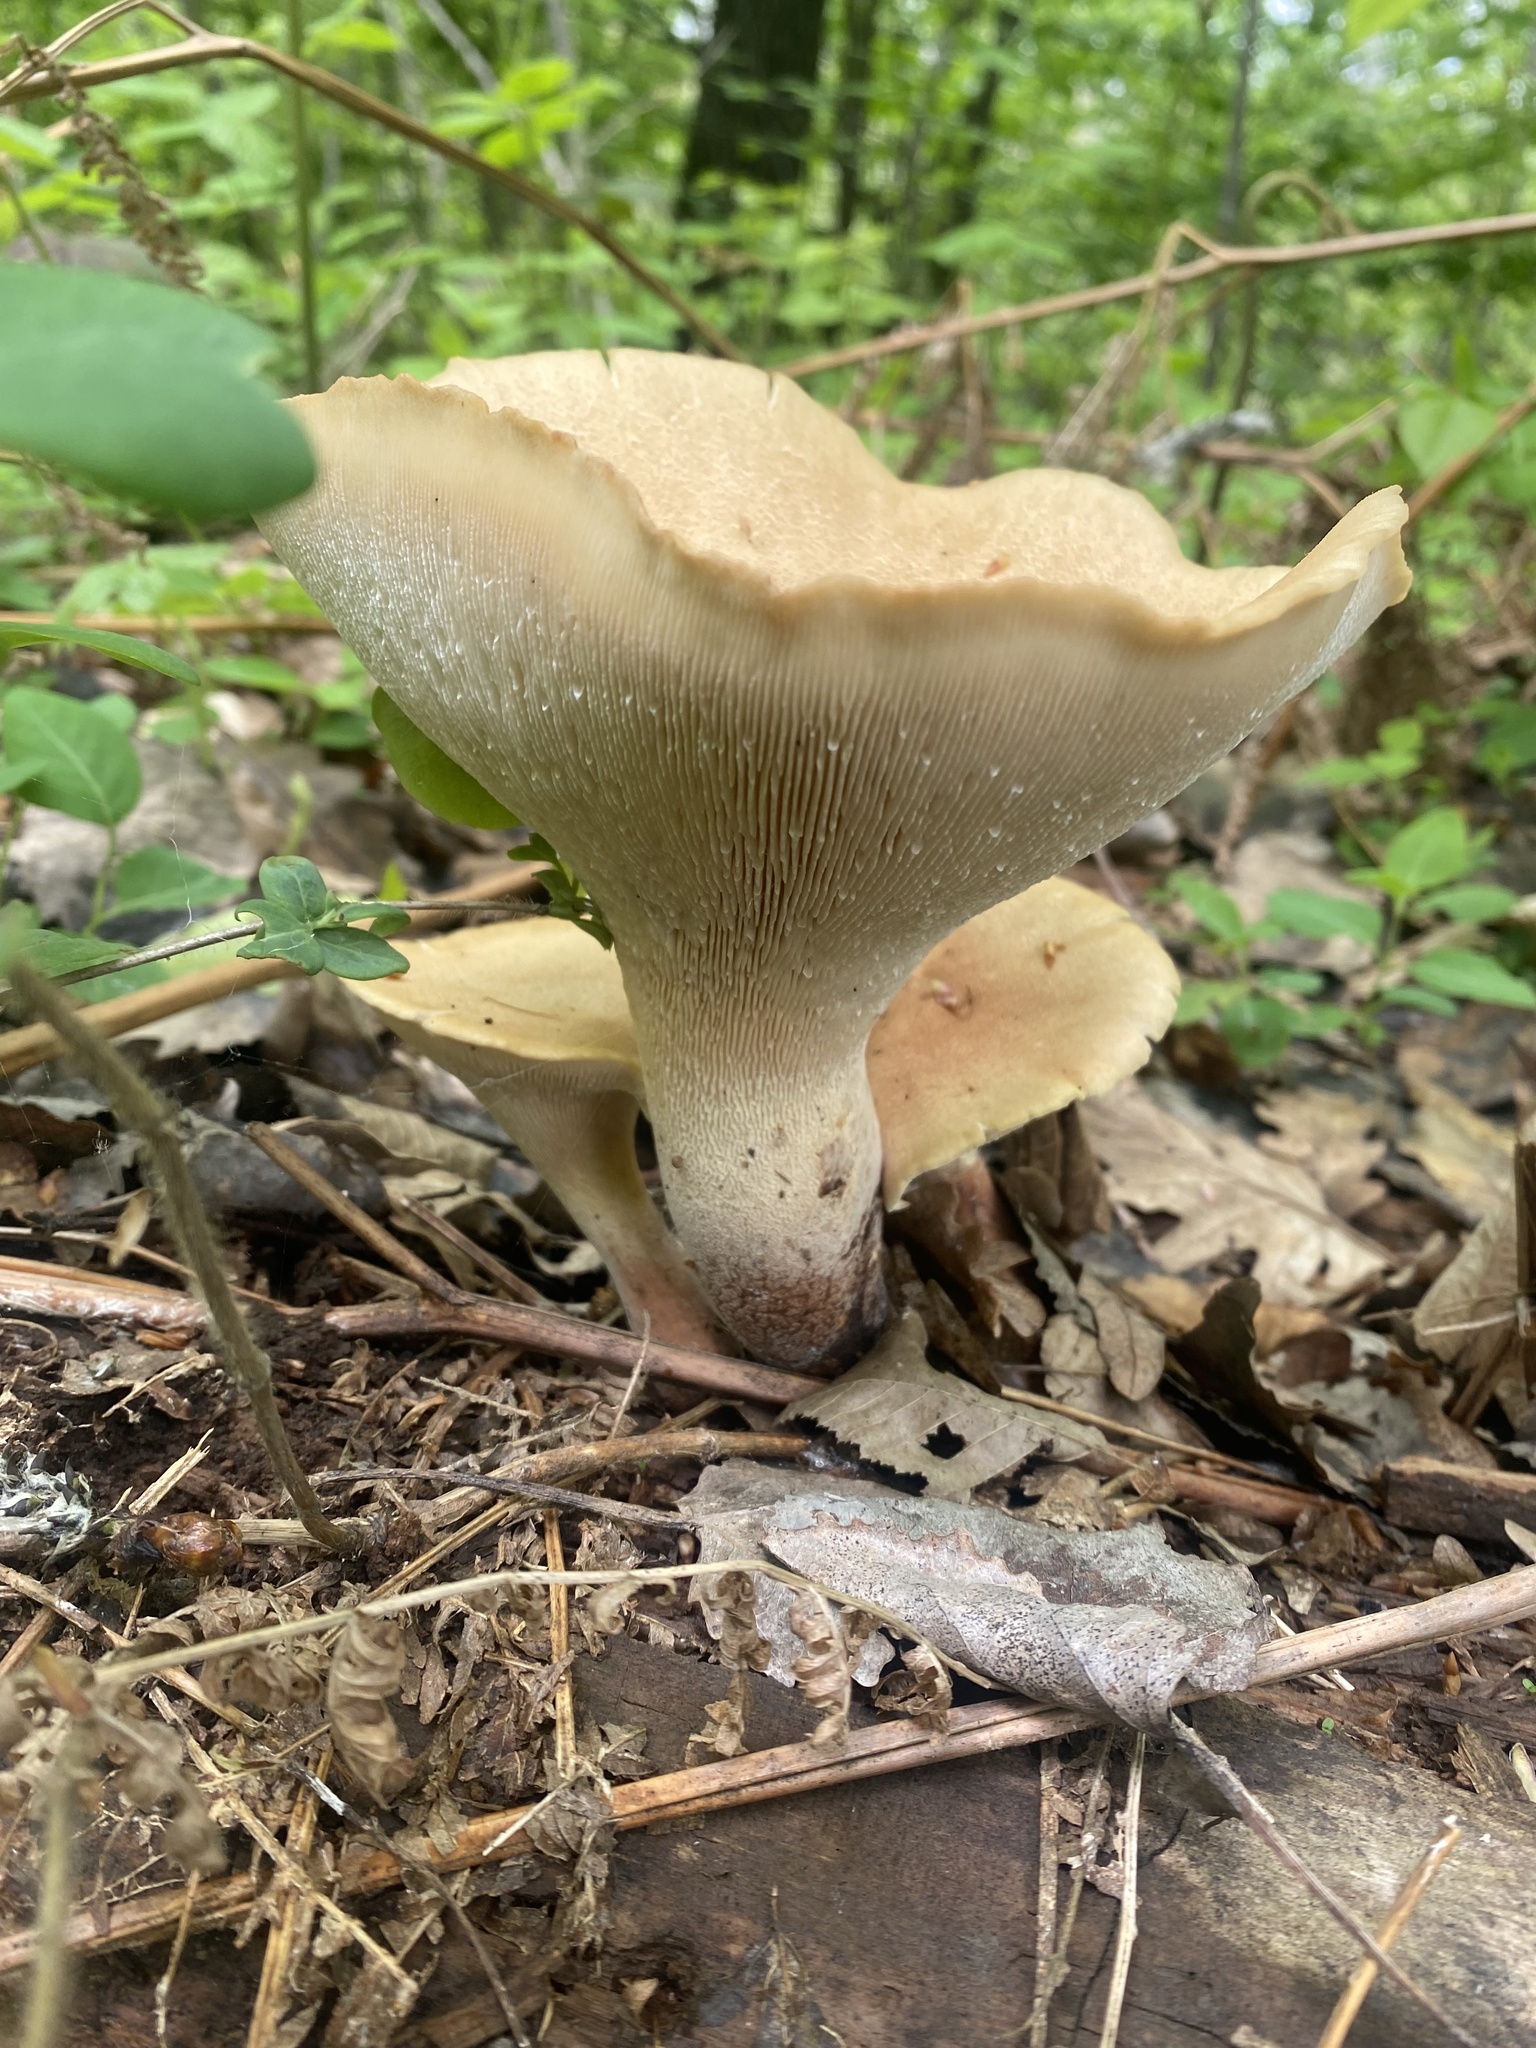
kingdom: Fungi
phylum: Basidiomycota
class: Agaricomycetes
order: Gloeophyllales
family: Gloeophyllaceae
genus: Neolentinus
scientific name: Neolentinus cyathiformis
